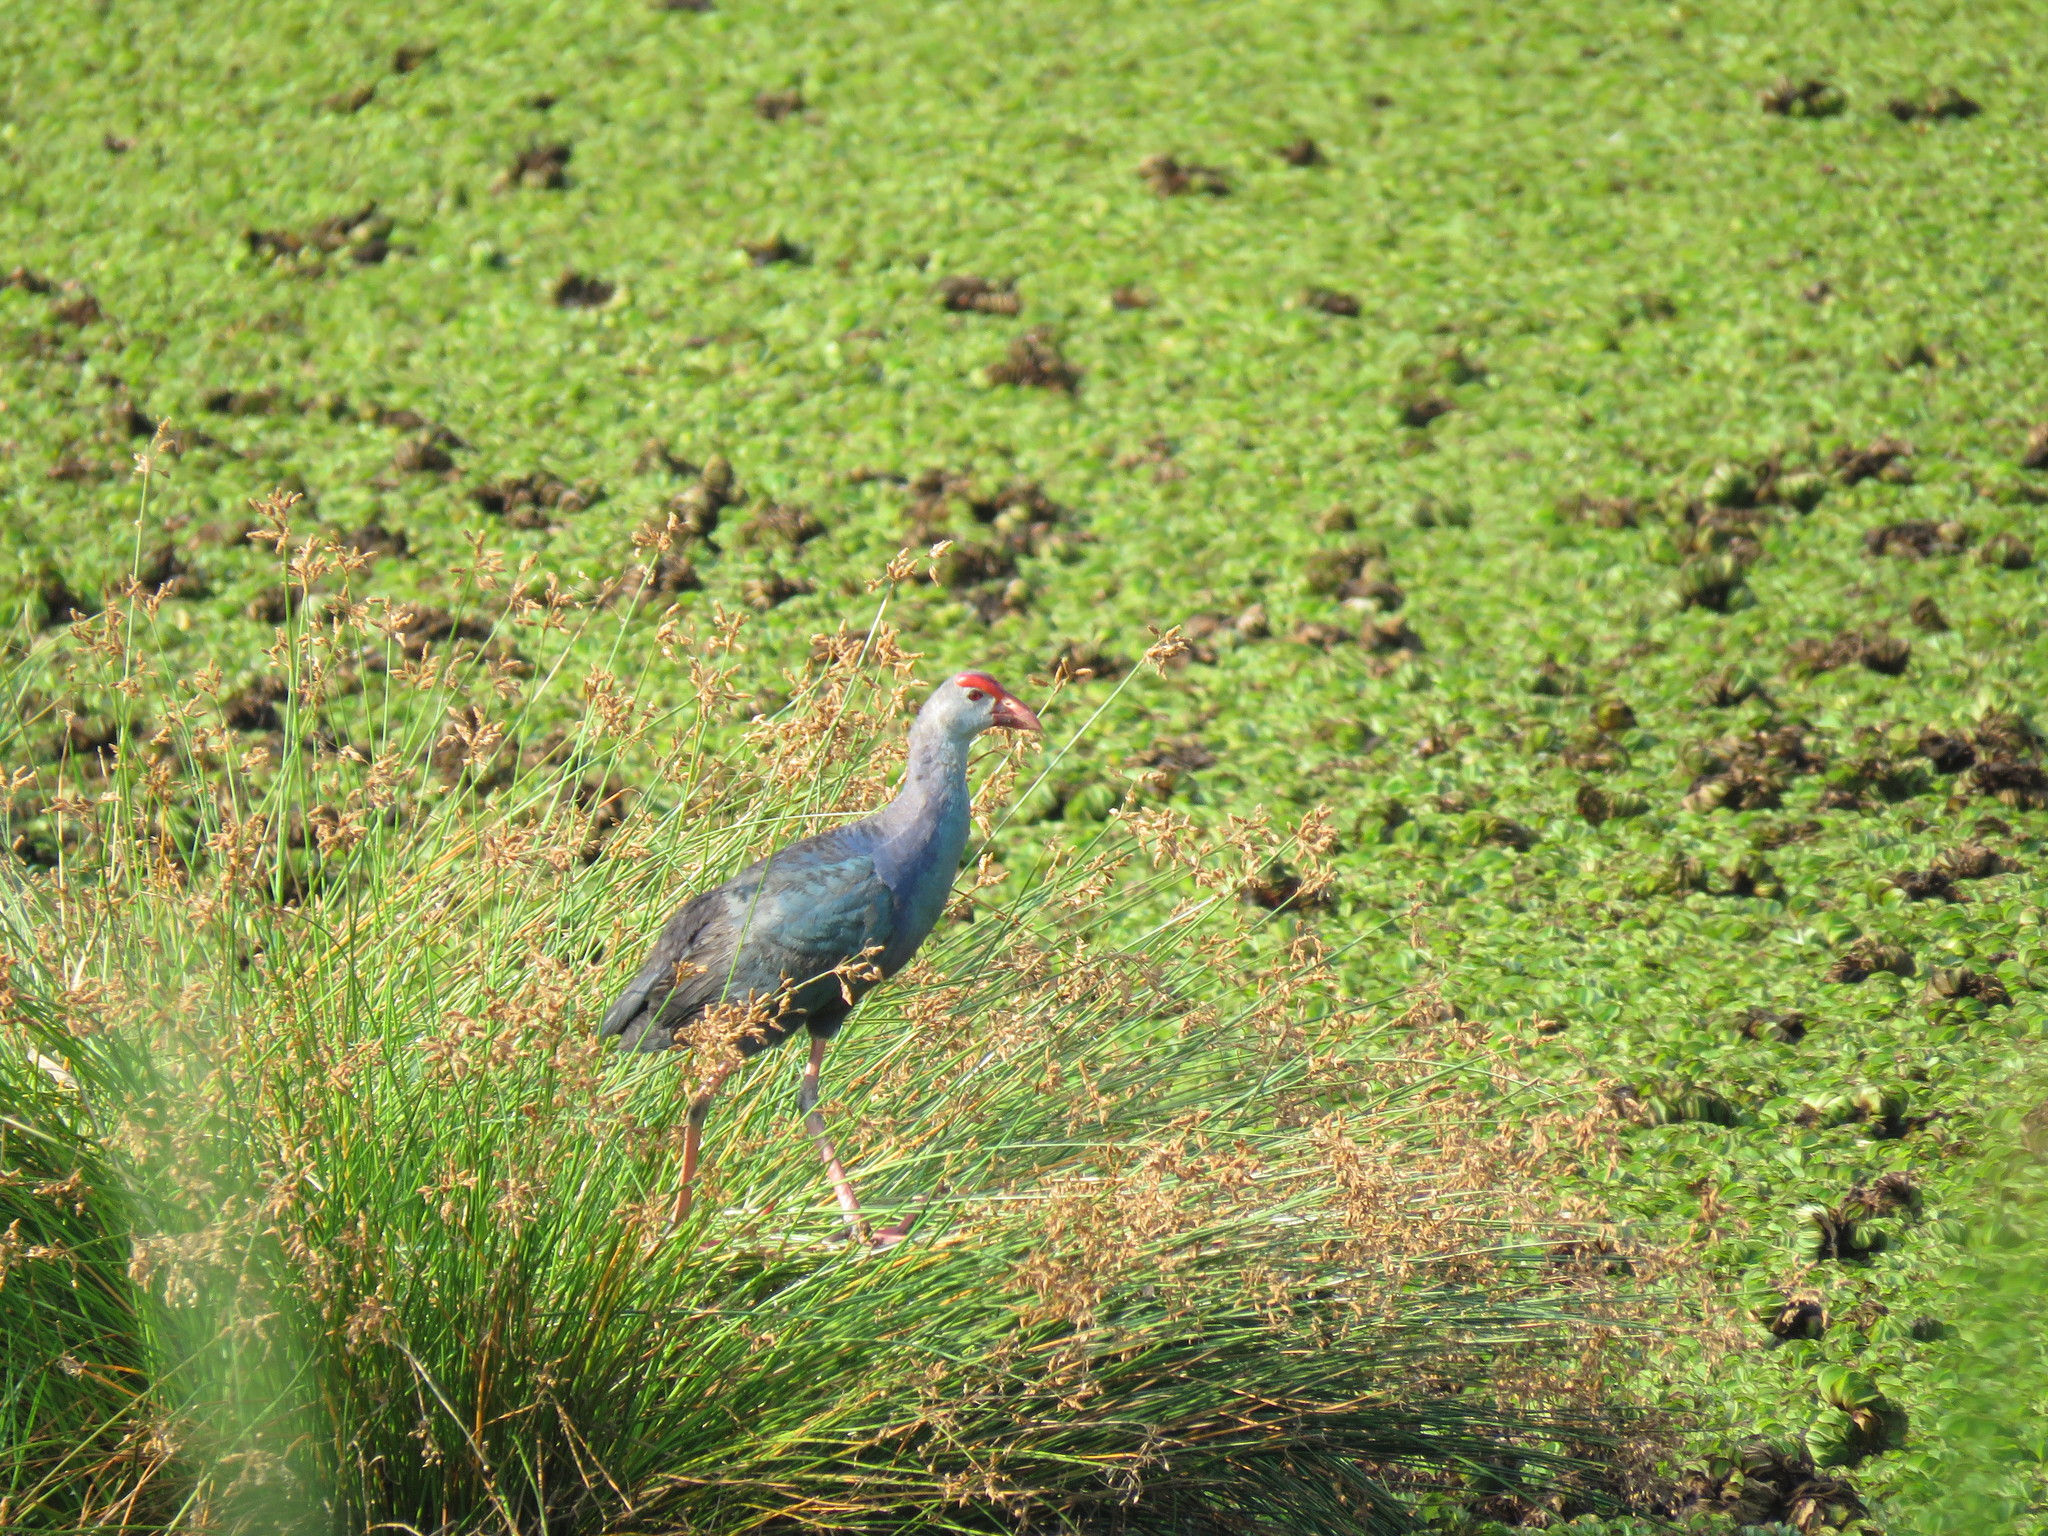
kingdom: Animalia
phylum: Chordata
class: Aves
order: Gruiformes
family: Rallidae
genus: Porphyrio
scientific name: Porphyrio porphyrio
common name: Purple swamphen
